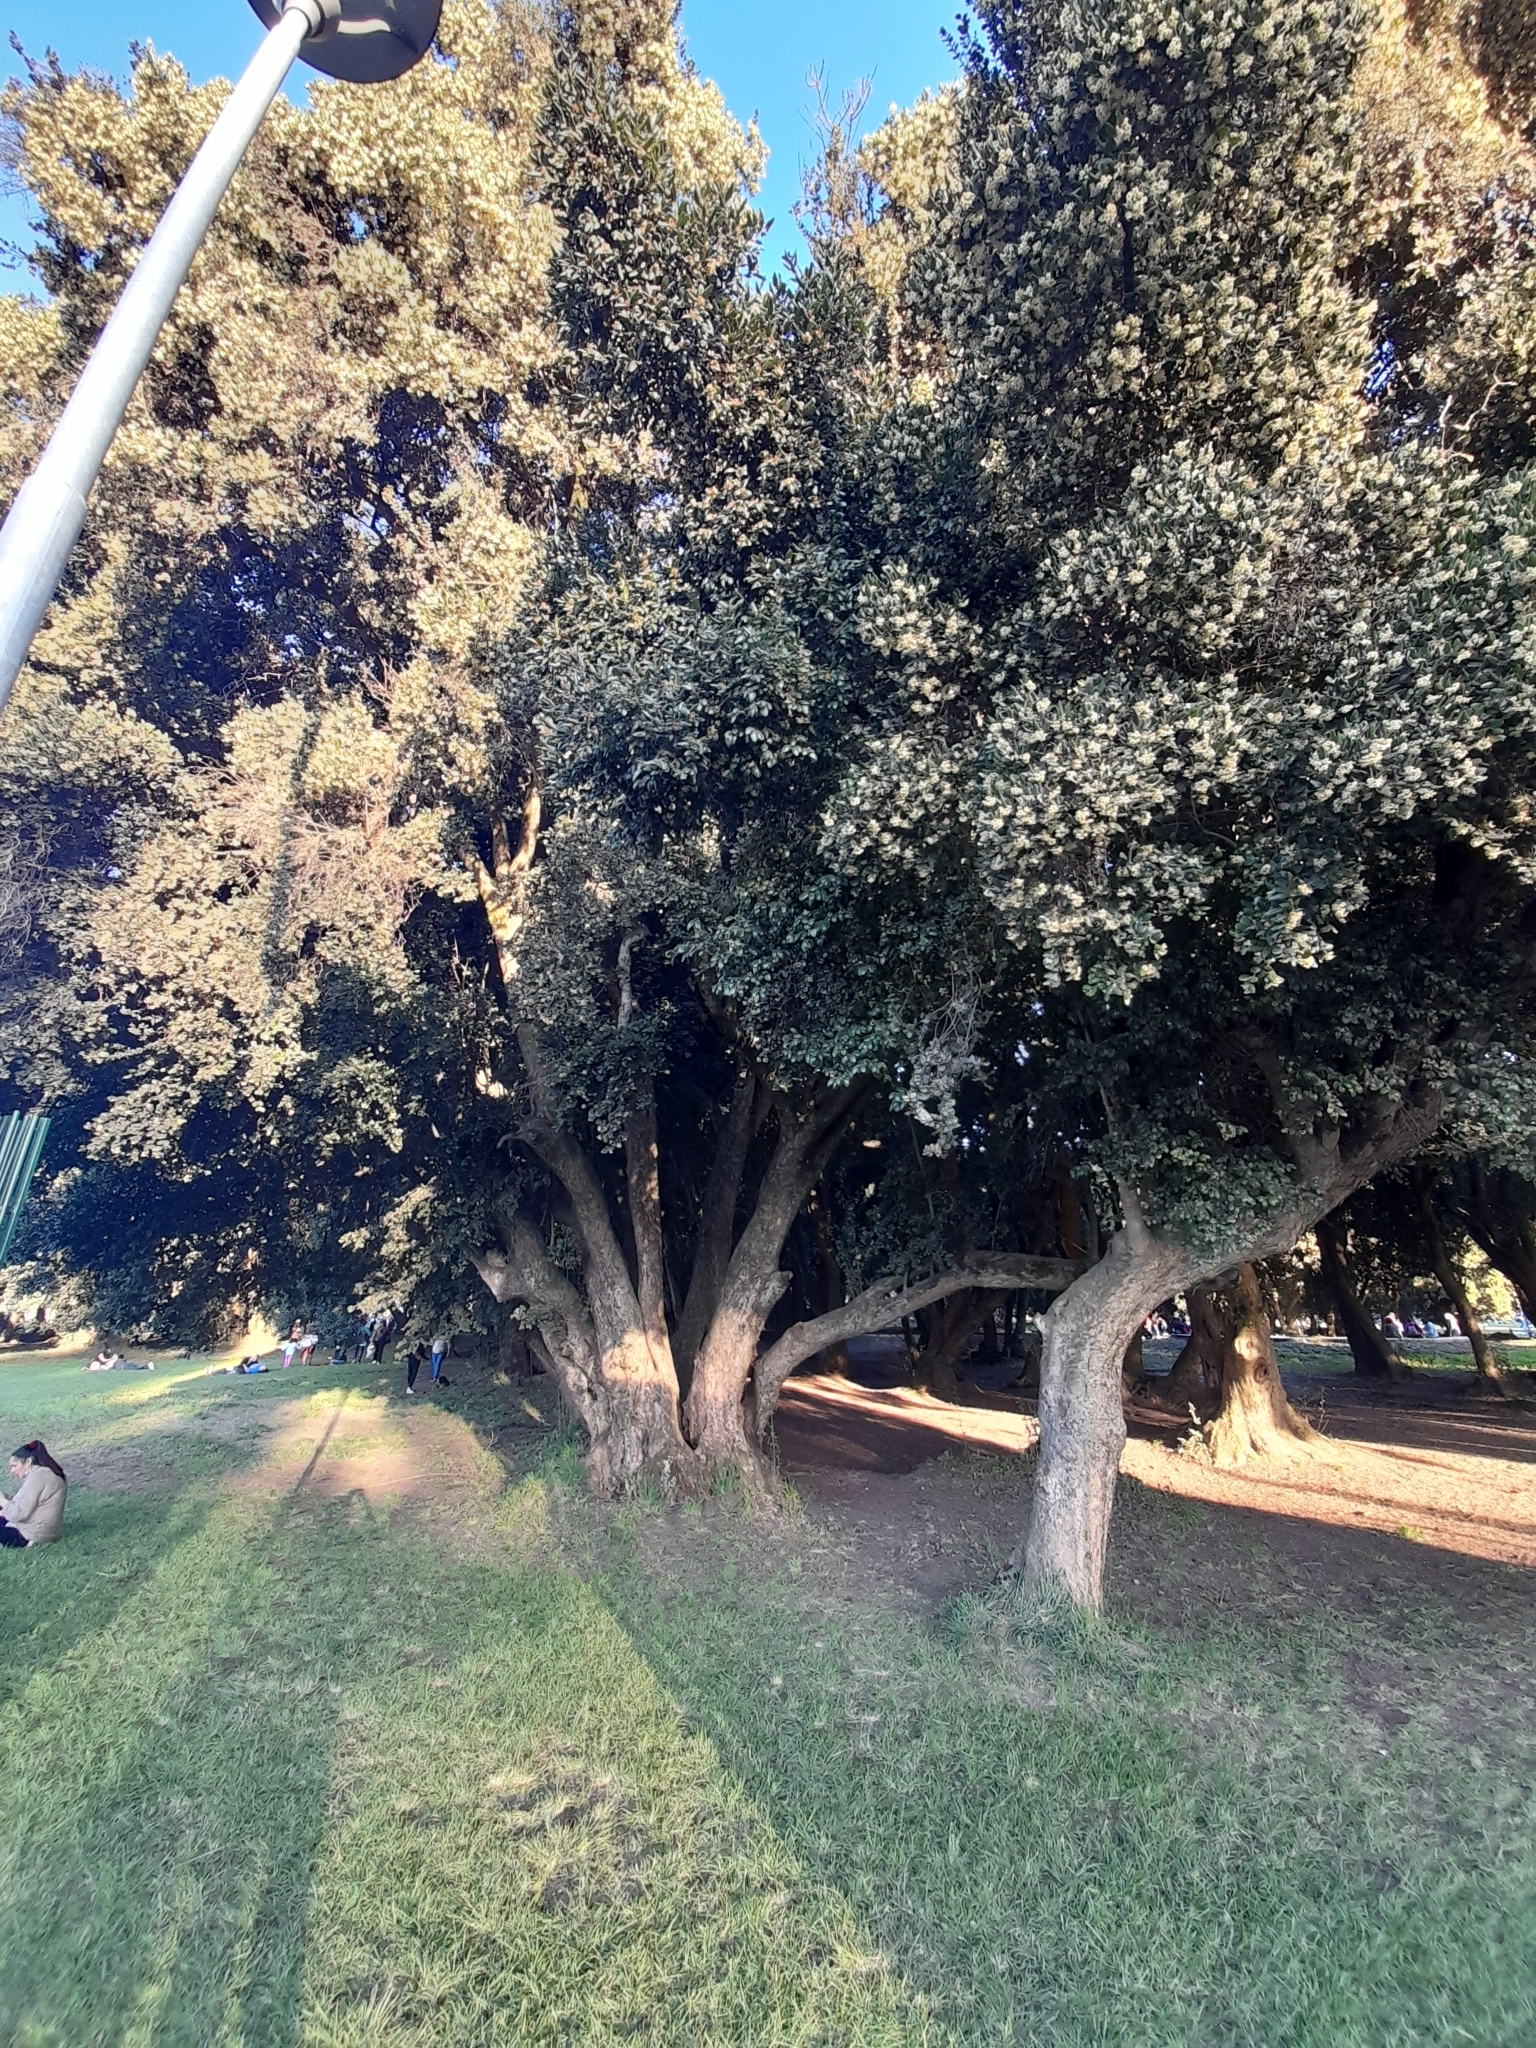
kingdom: Plantae
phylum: Tracheophyta
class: Magnoliopsida
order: Laurales
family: Monimiaceae
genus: Peumus
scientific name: Peumus boldus
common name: Boldo
